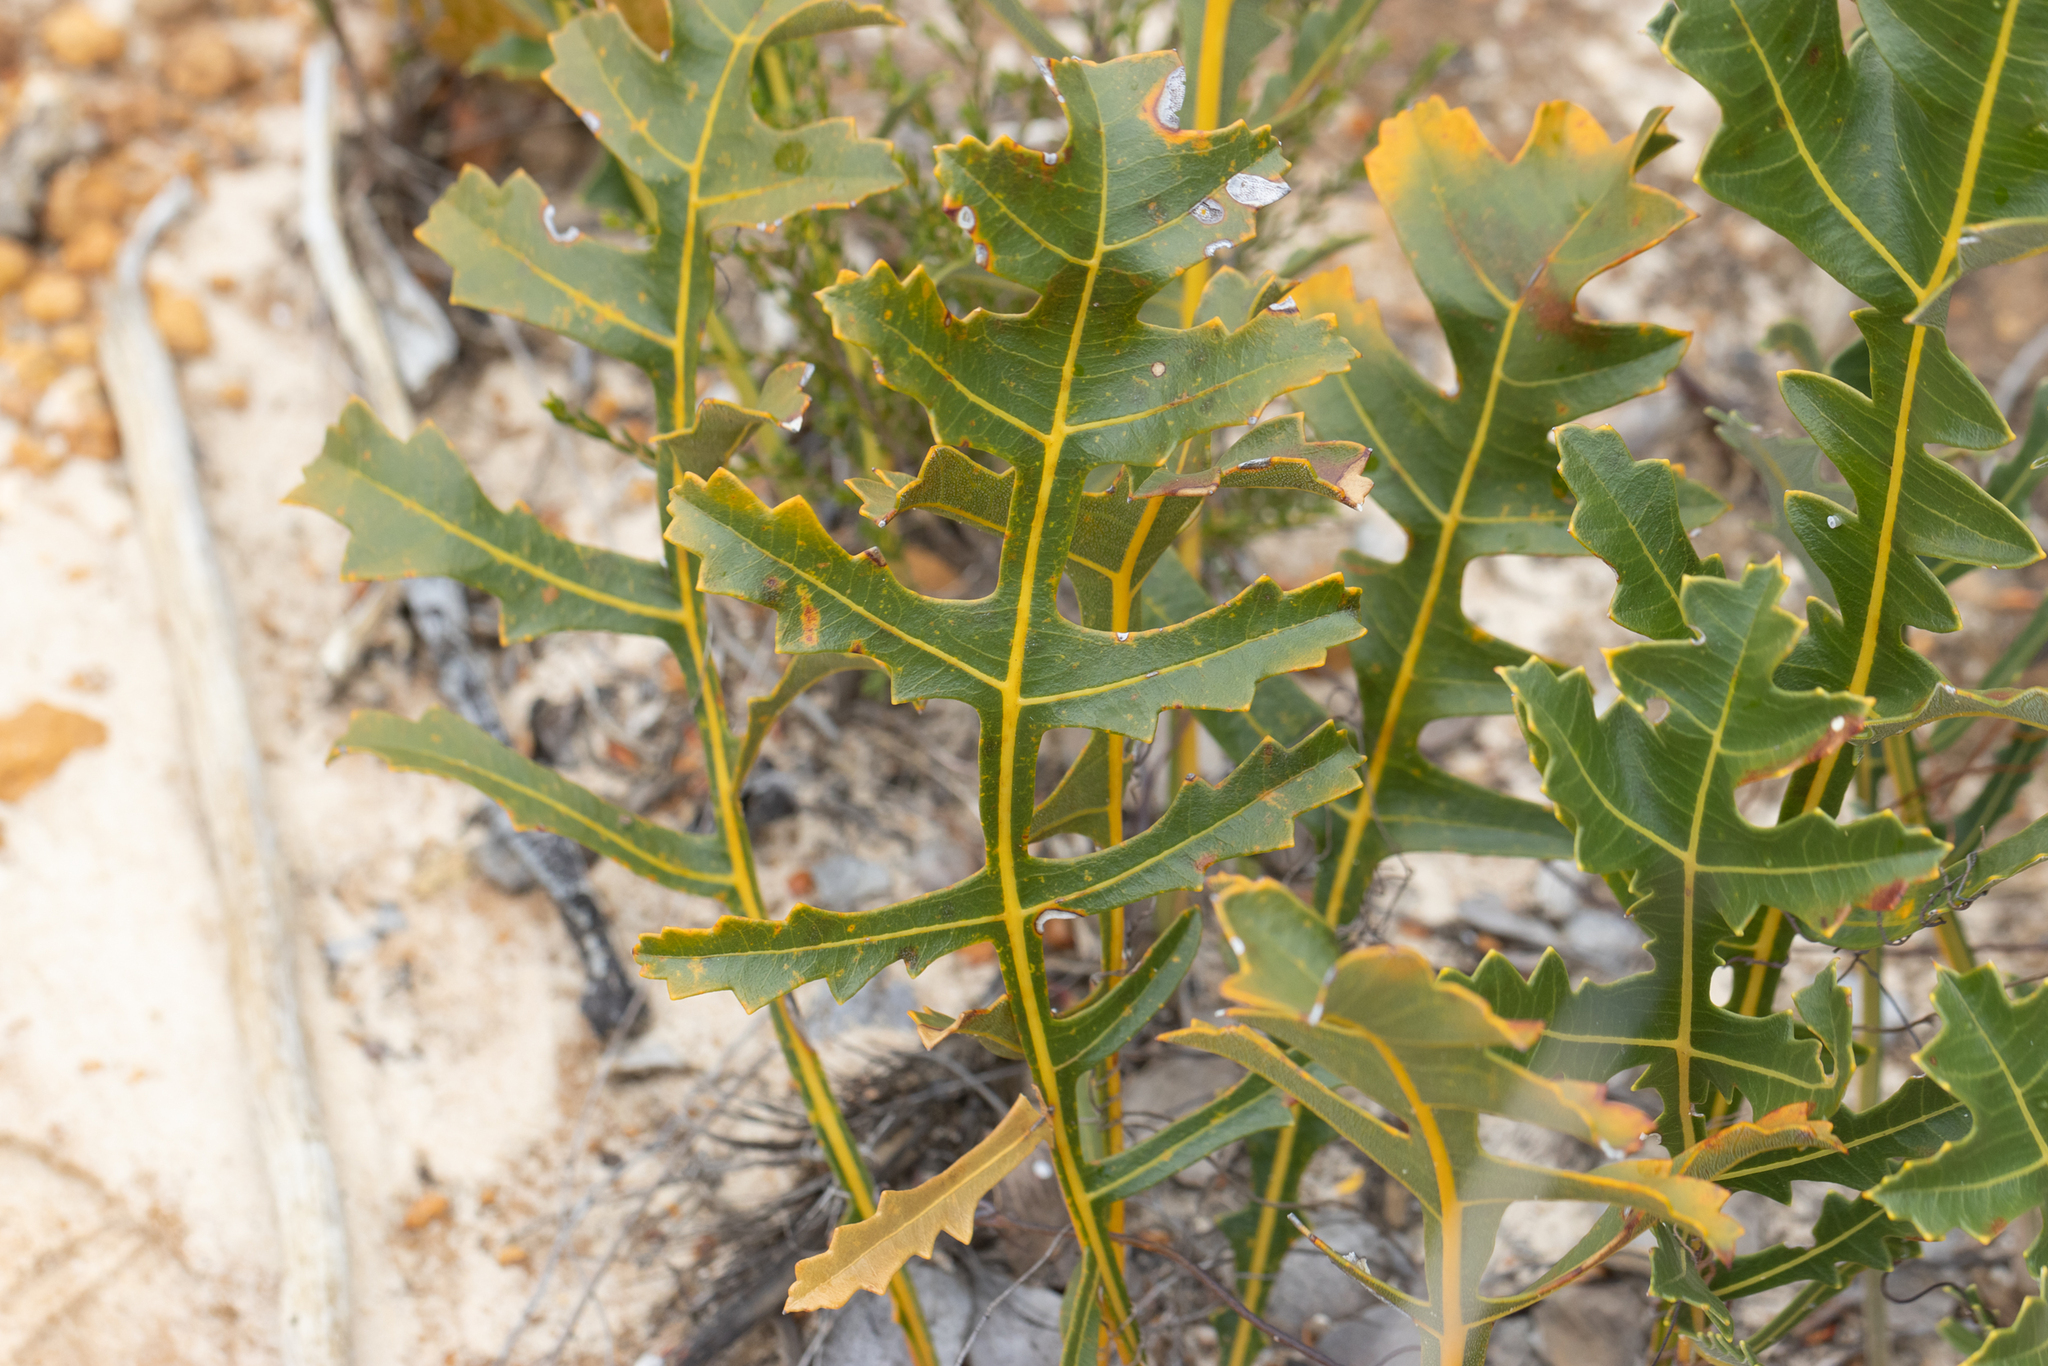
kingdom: Plantae
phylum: Tracheophyta
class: Magnoliopsida
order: Proteales
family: Proteaceae
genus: Banksia
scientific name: Banksia repens
